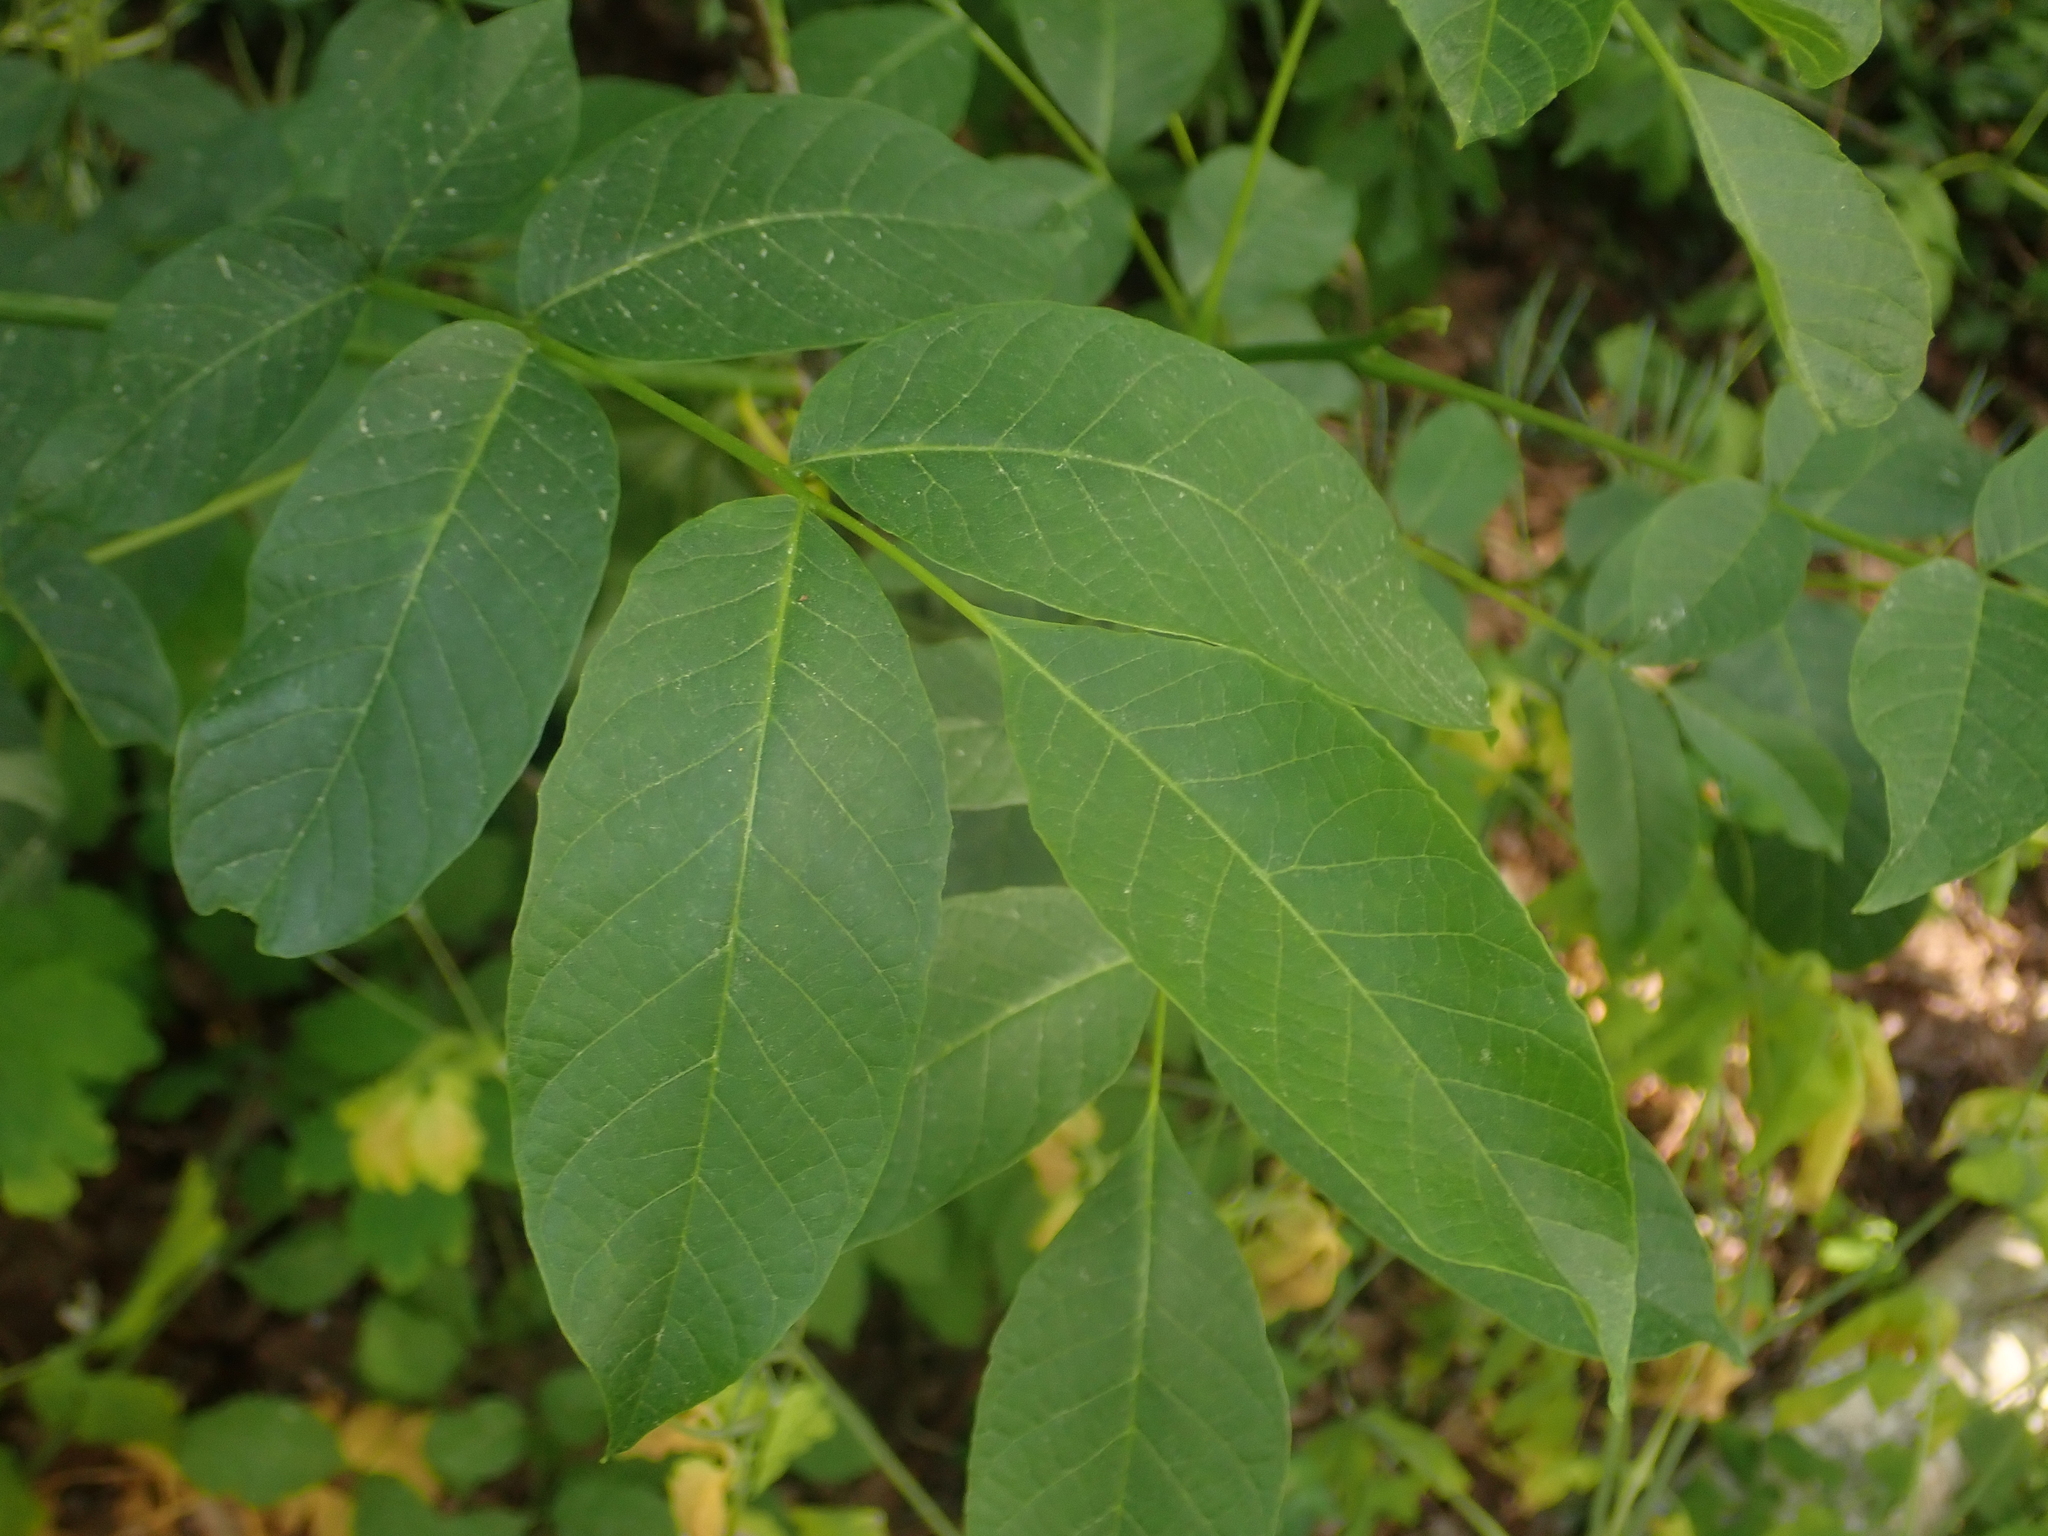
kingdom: Plantae
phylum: Tracheophyta
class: Magnoliopsida
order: Fagales
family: Juglandaceae
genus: Juglans
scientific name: Juglans regia
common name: Walnut
